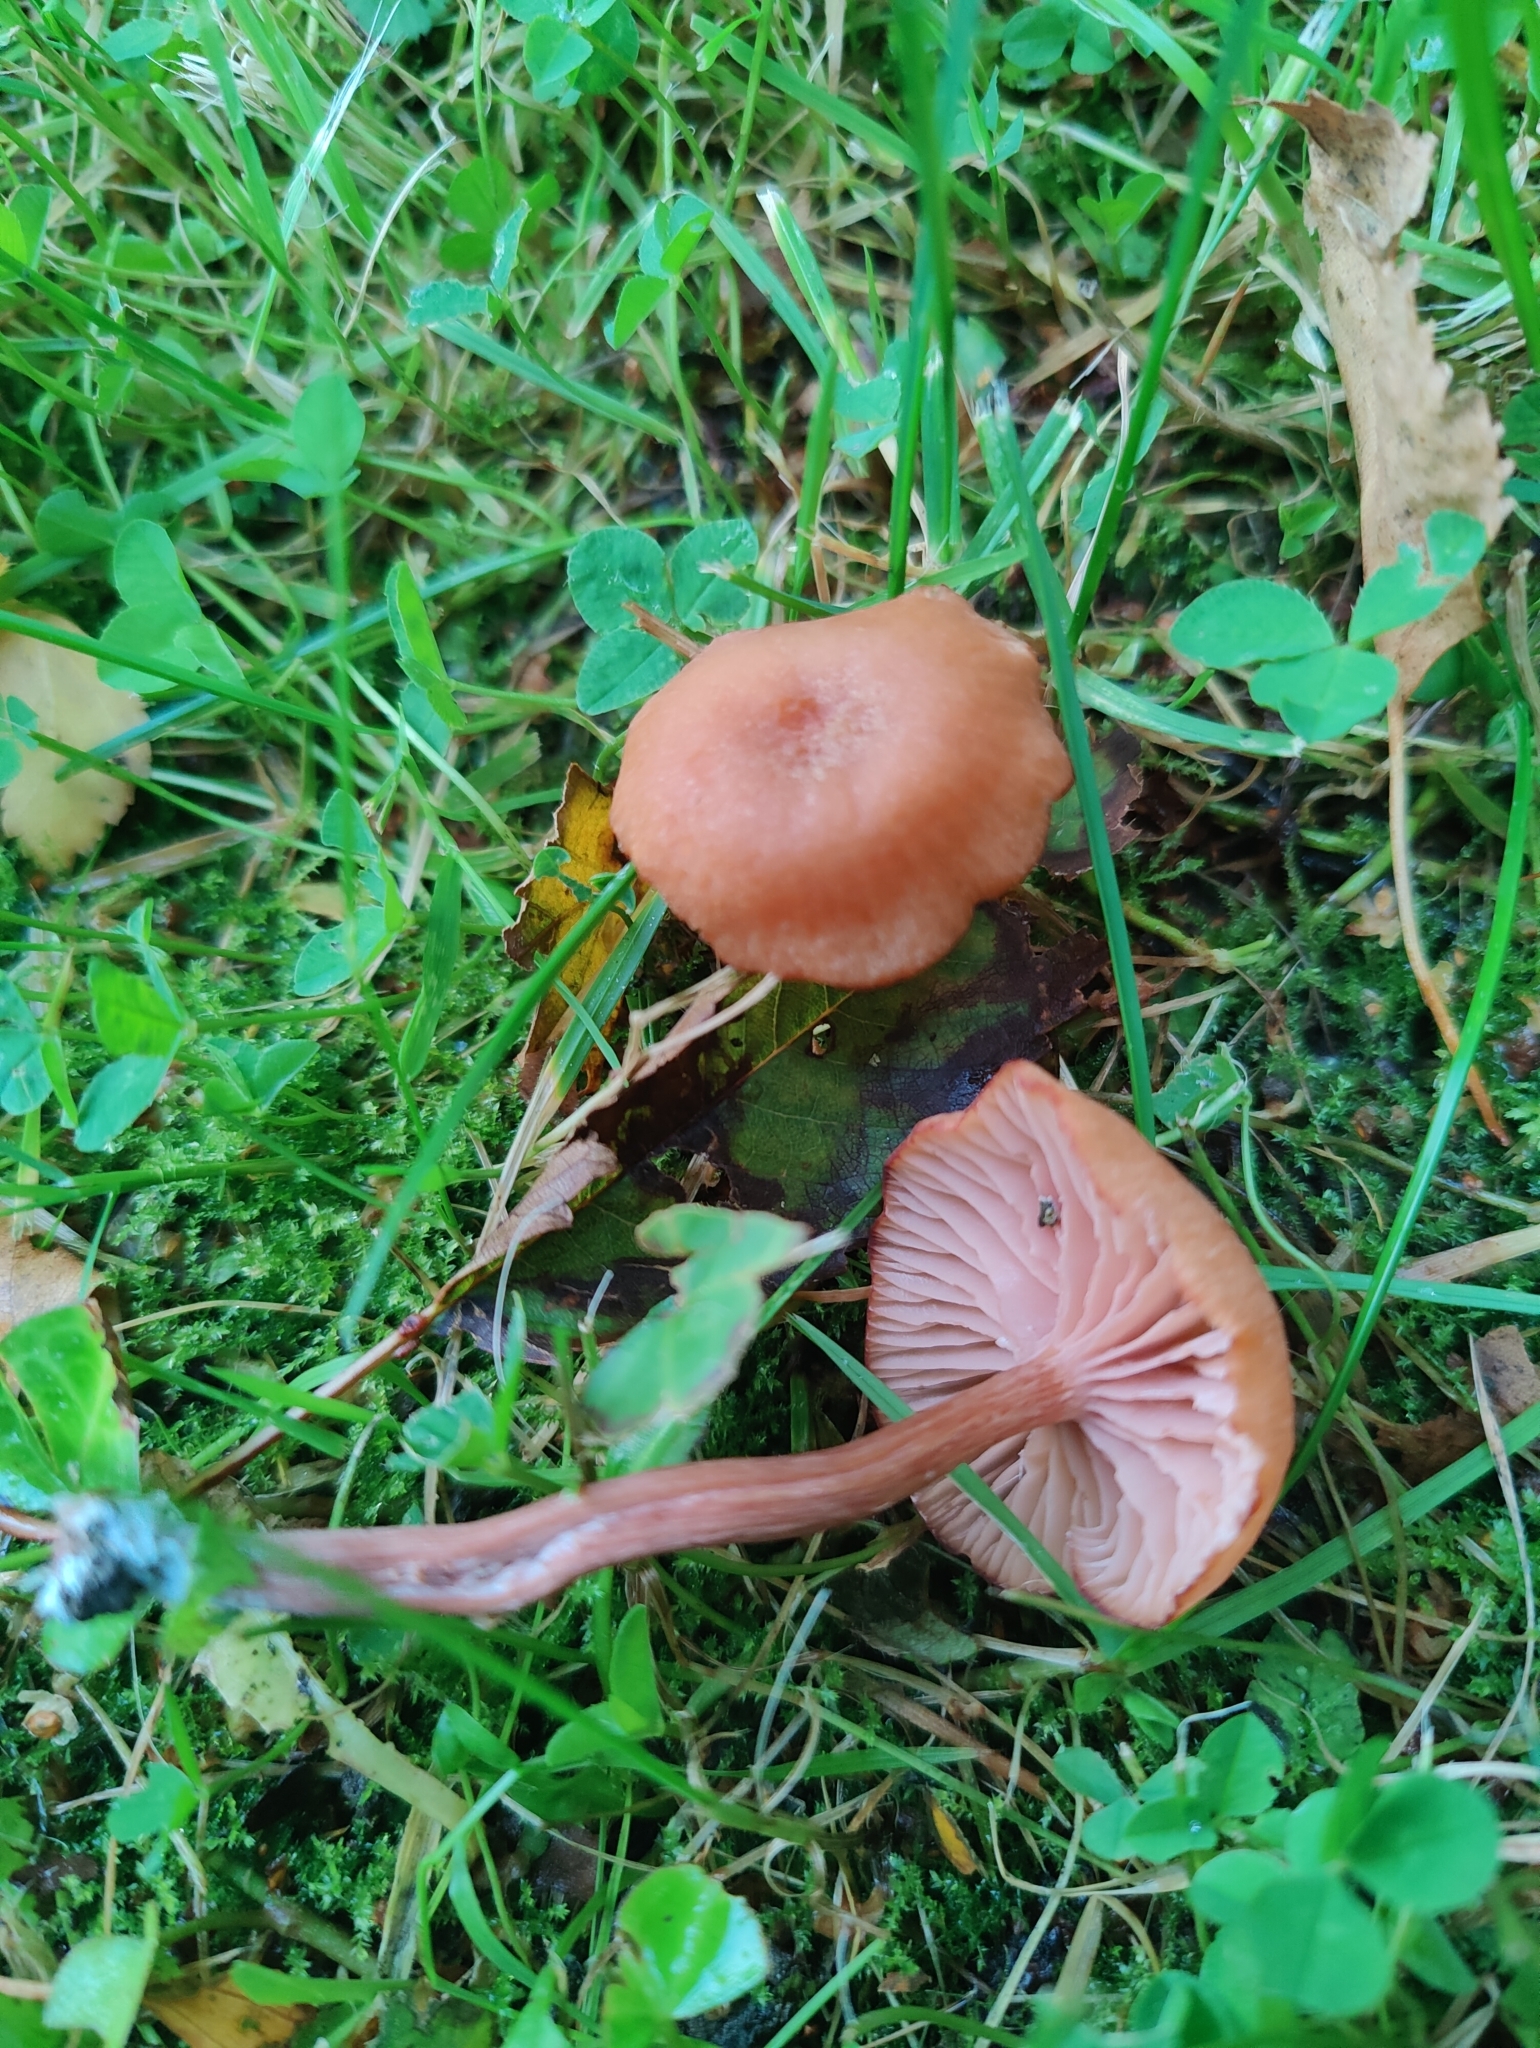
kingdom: Fungi
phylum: Basidiomycota
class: Agaricomycetes
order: Agaricales
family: Hydnangiaceae
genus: Laccaria
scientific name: Laccaria laccata
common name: Deceiver
